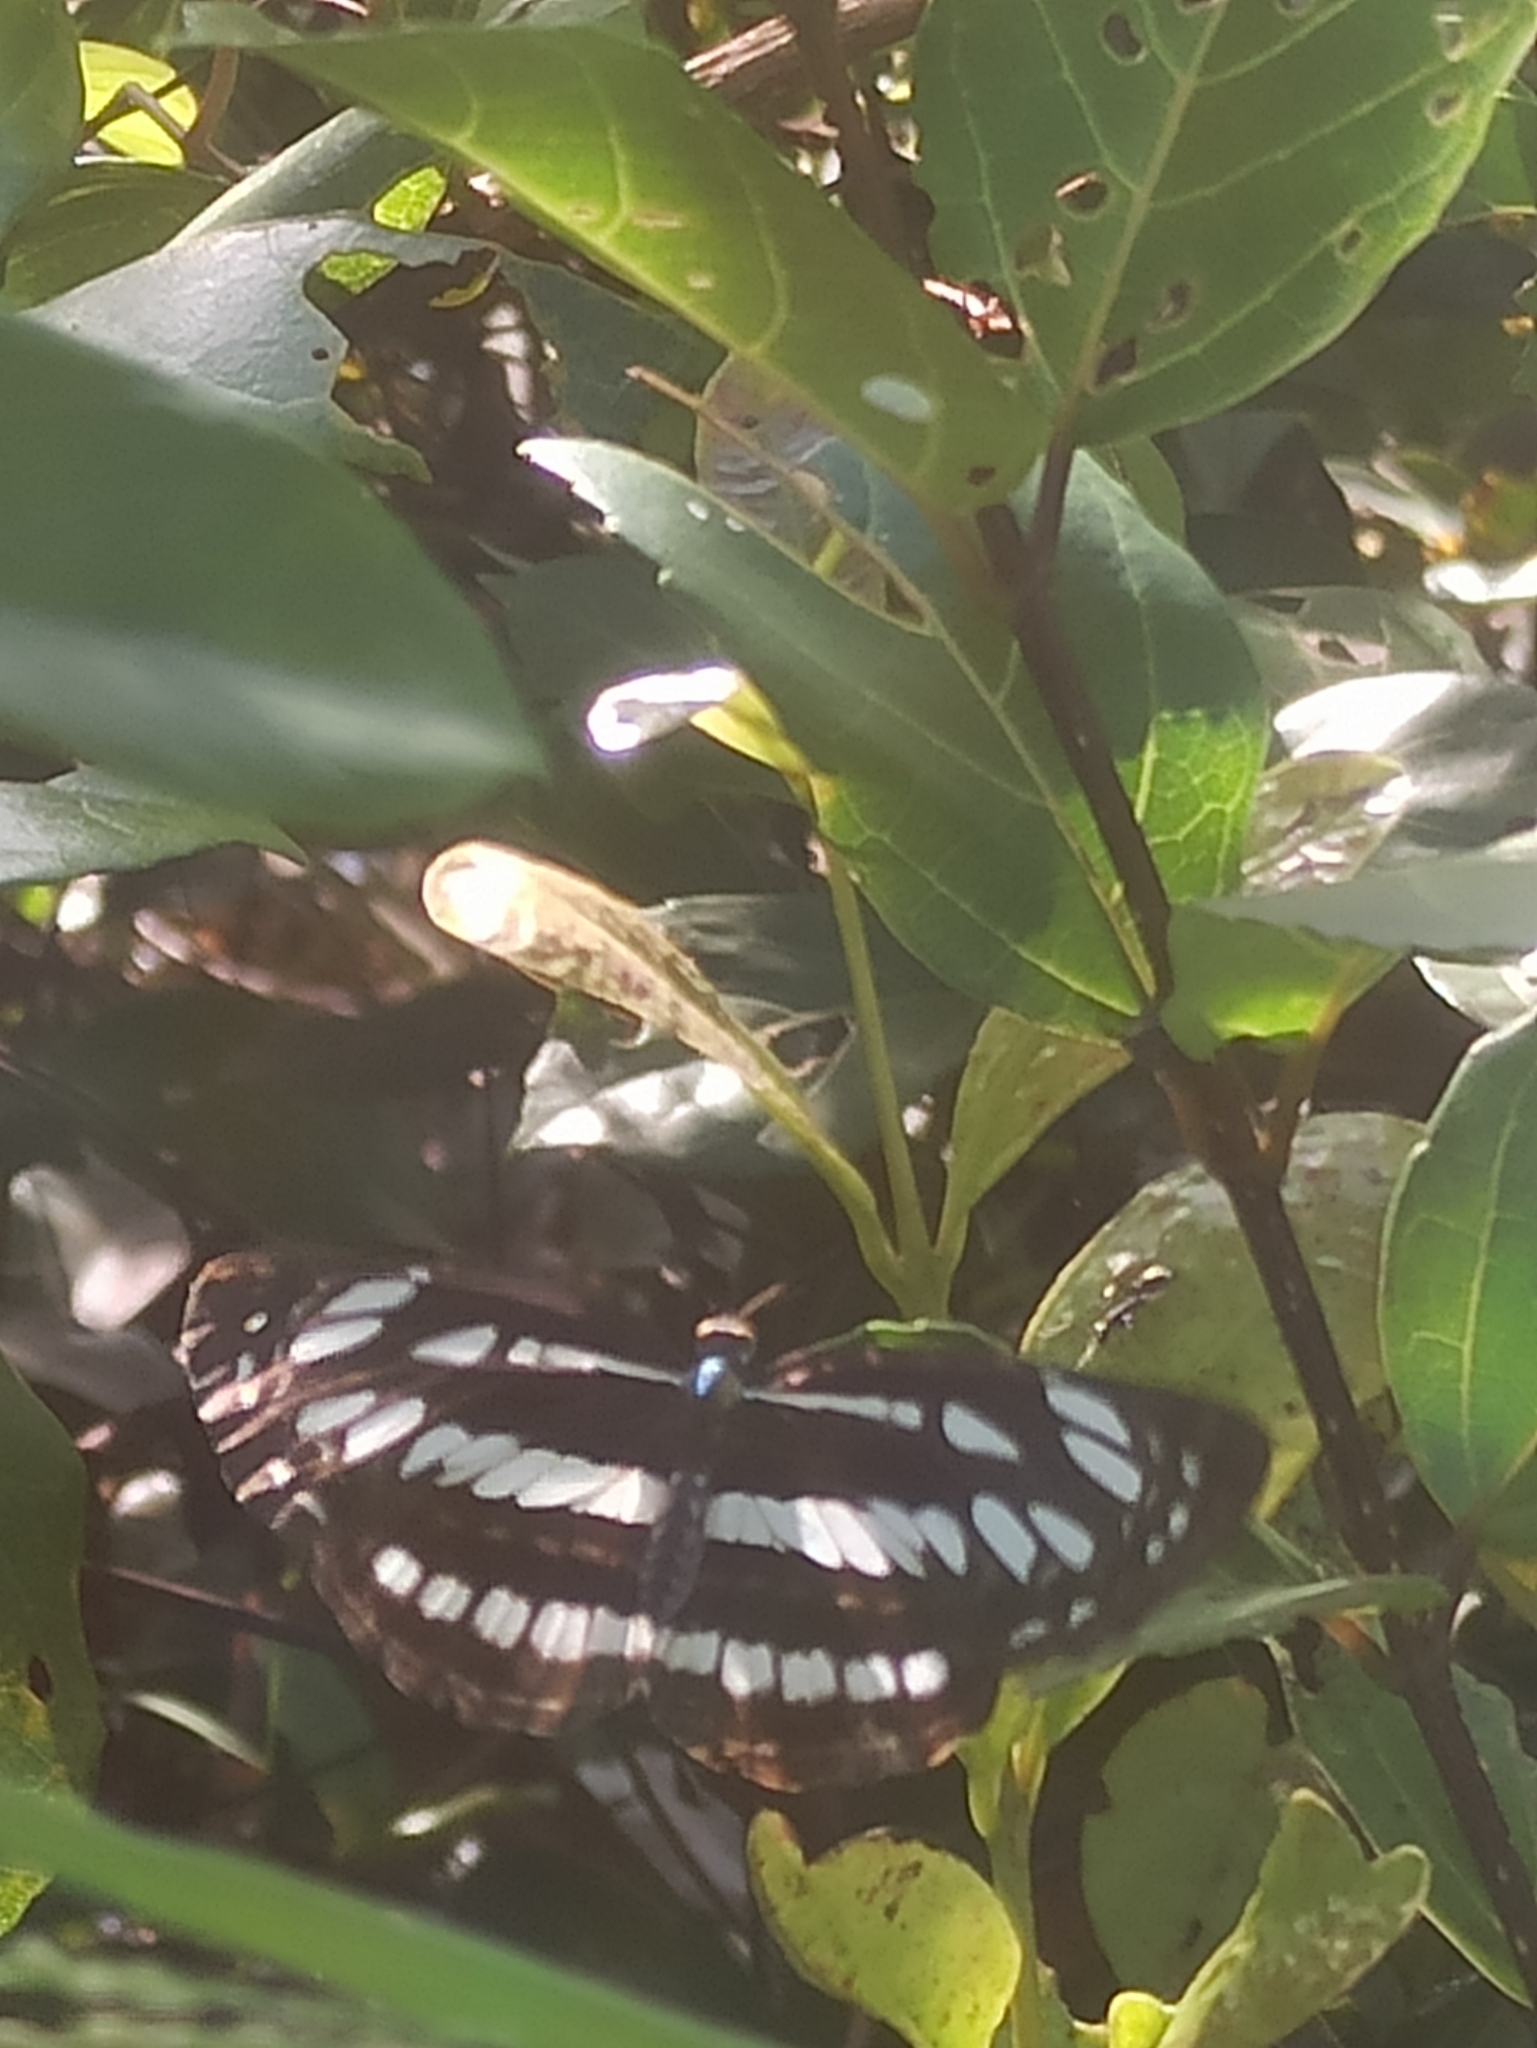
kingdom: Animalia
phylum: Arthropoda
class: Insecta
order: Lepidoptera
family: Nymphalidae
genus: Neptis
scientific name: Neptis hylas
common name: Common sailer
